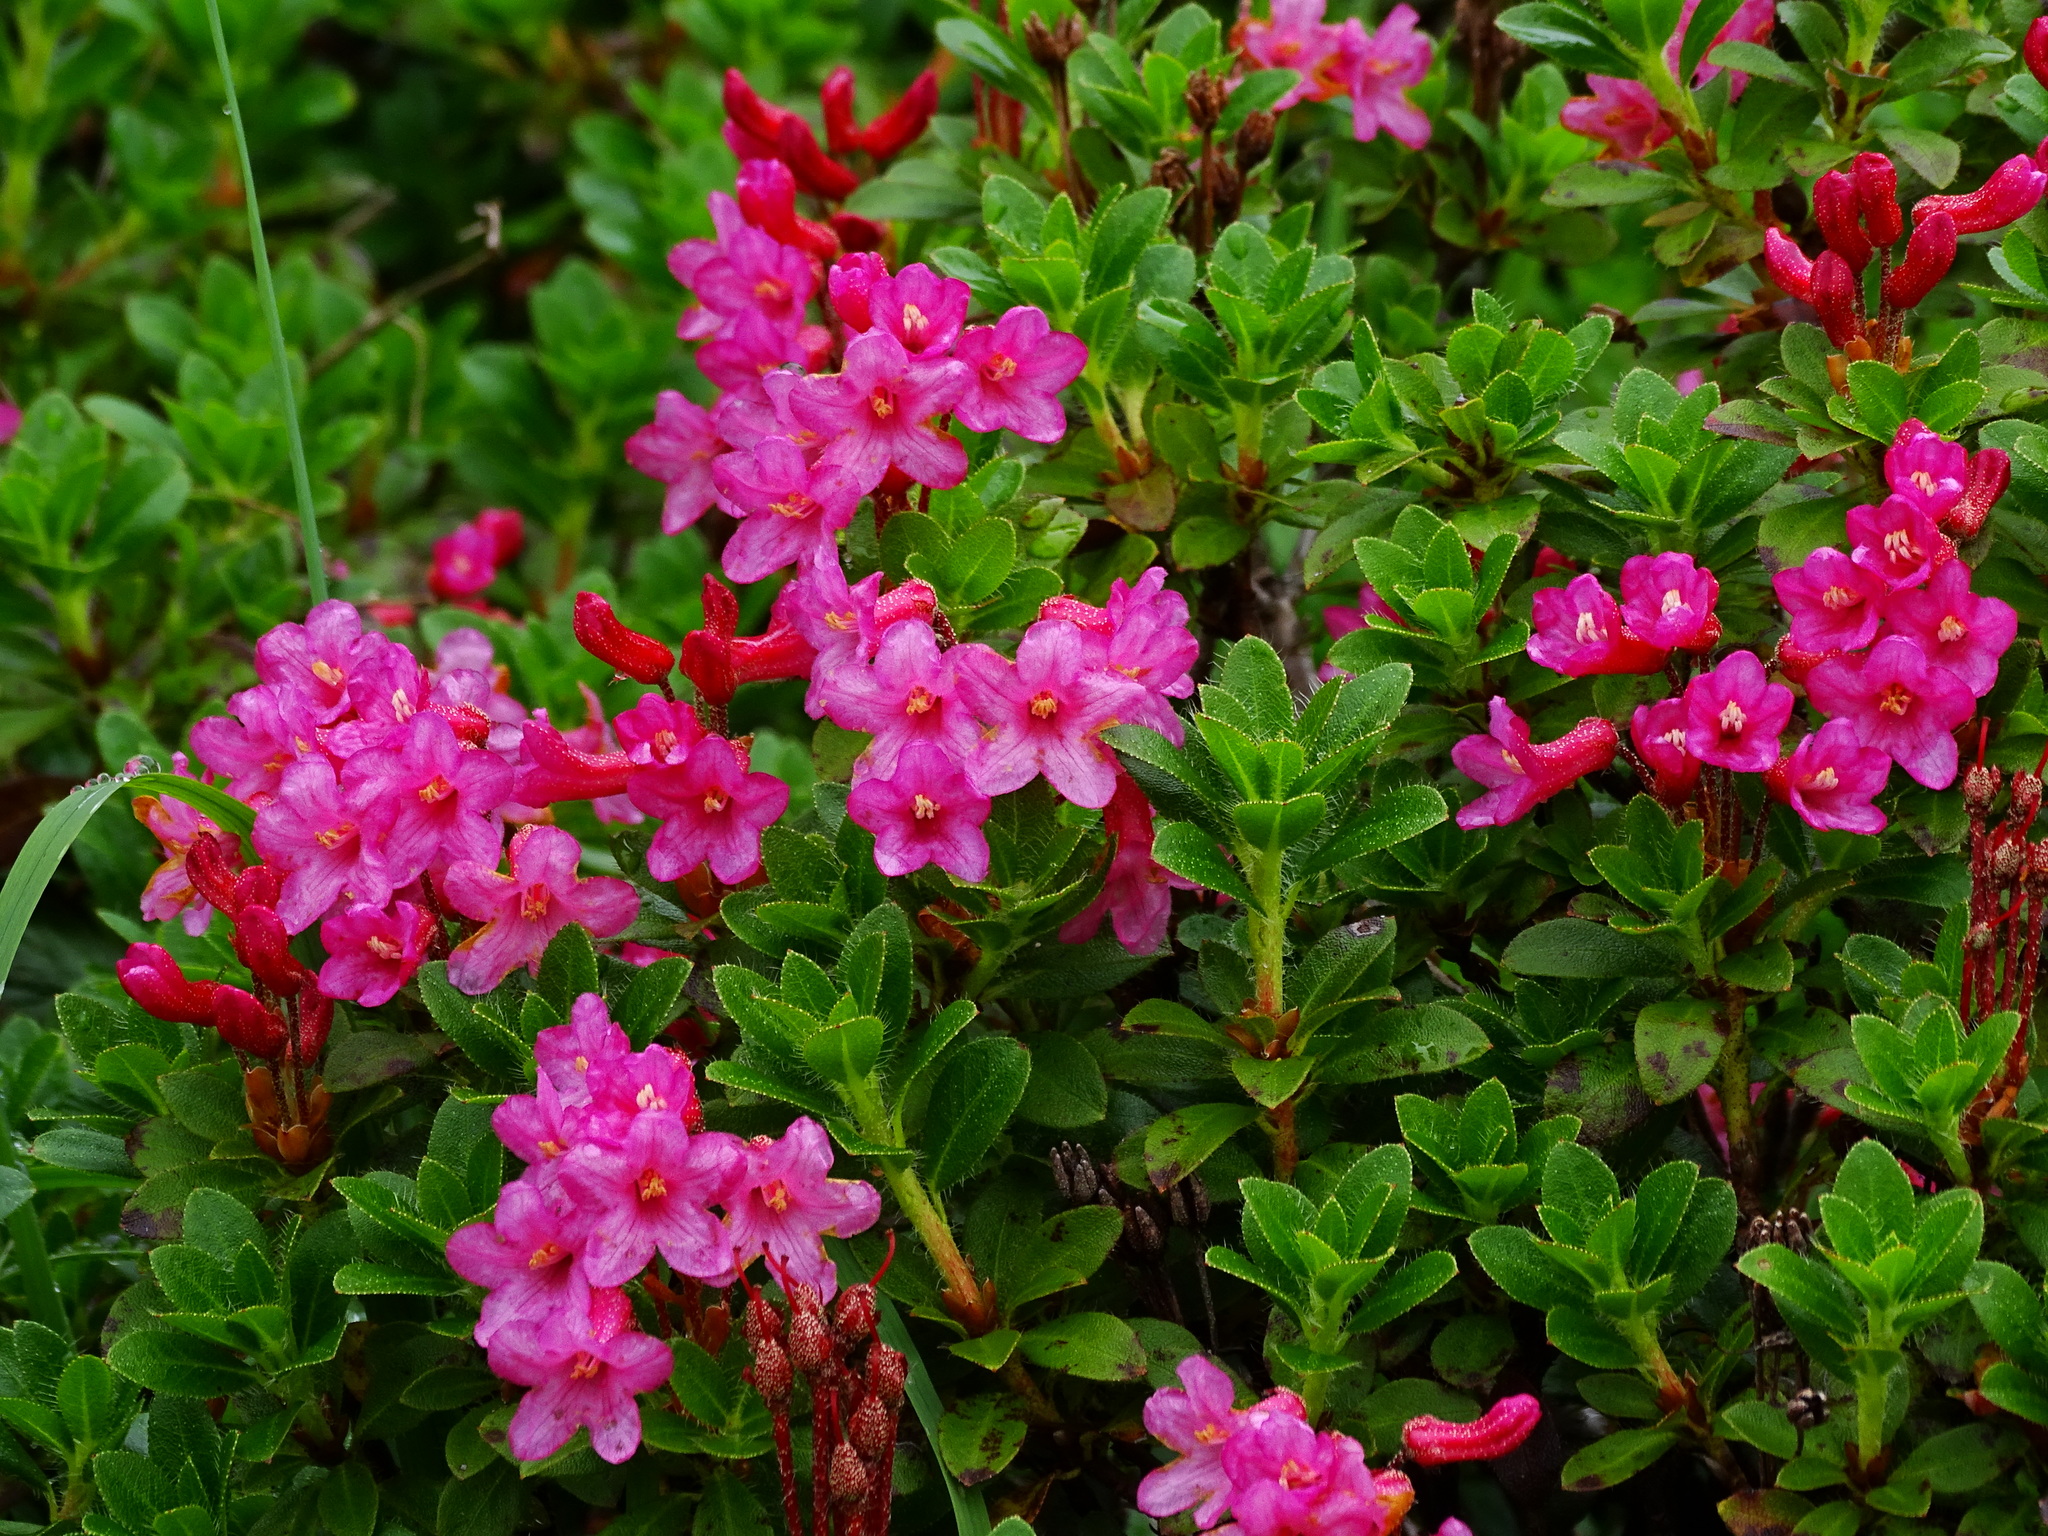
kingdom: Plantae
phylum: Tracheophyta
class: Magnoliopsida
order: Ericales
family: Ericaceae
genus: Rhododendron
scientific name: Rhododendron hirsutum
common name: Hairy alpenrose
